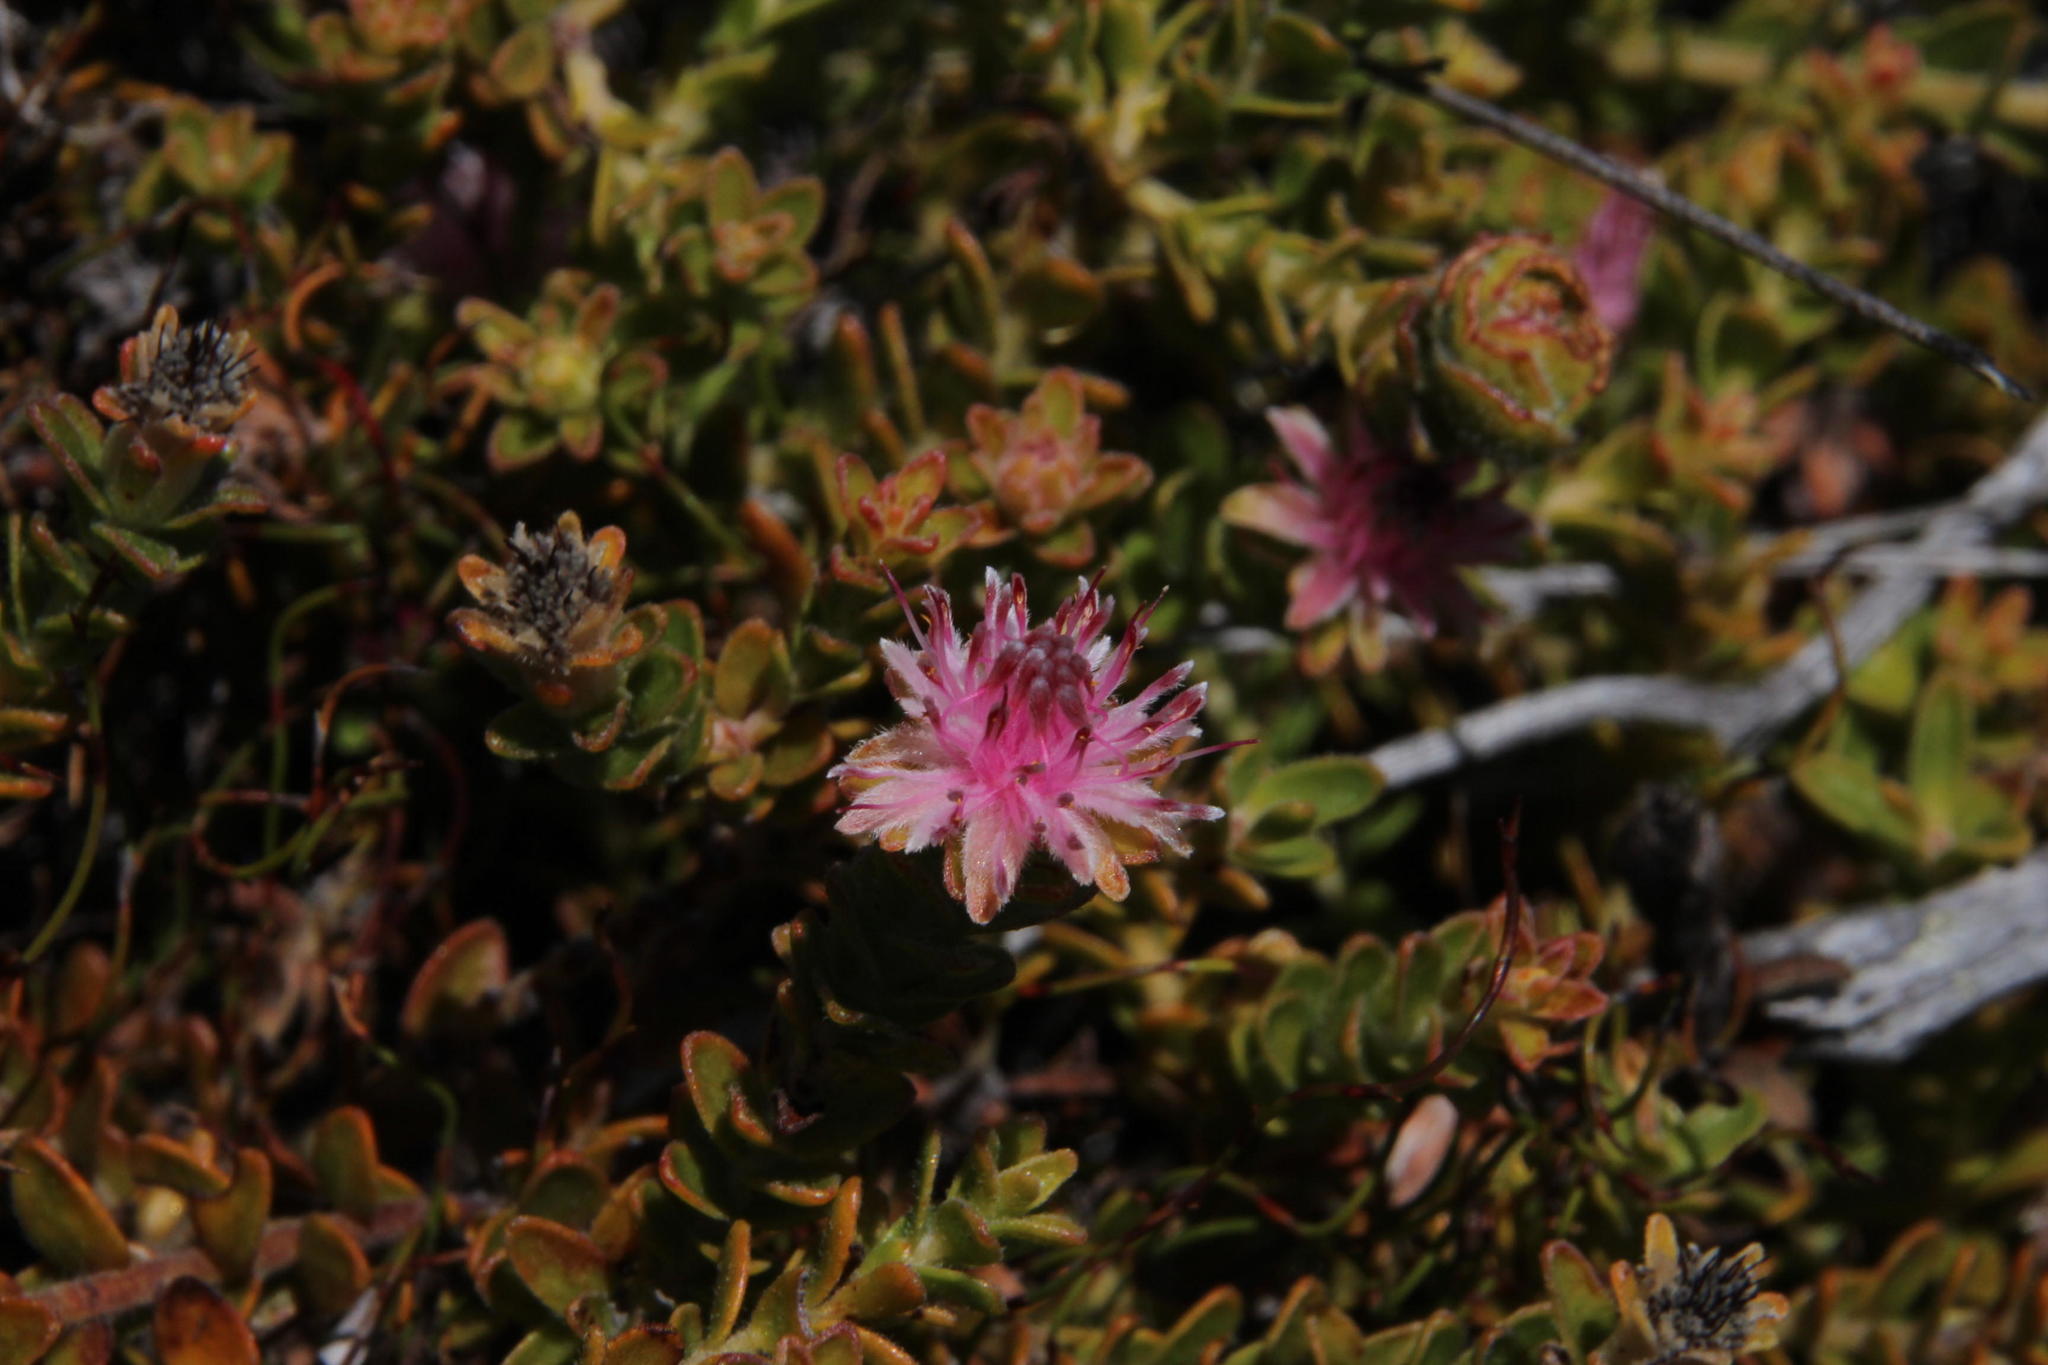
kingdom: Plantae
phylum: Tracheophyta
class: Magnoliopsida
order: Proteales
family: Proteaceae
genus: Diastella
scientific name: Diastella divaricata
